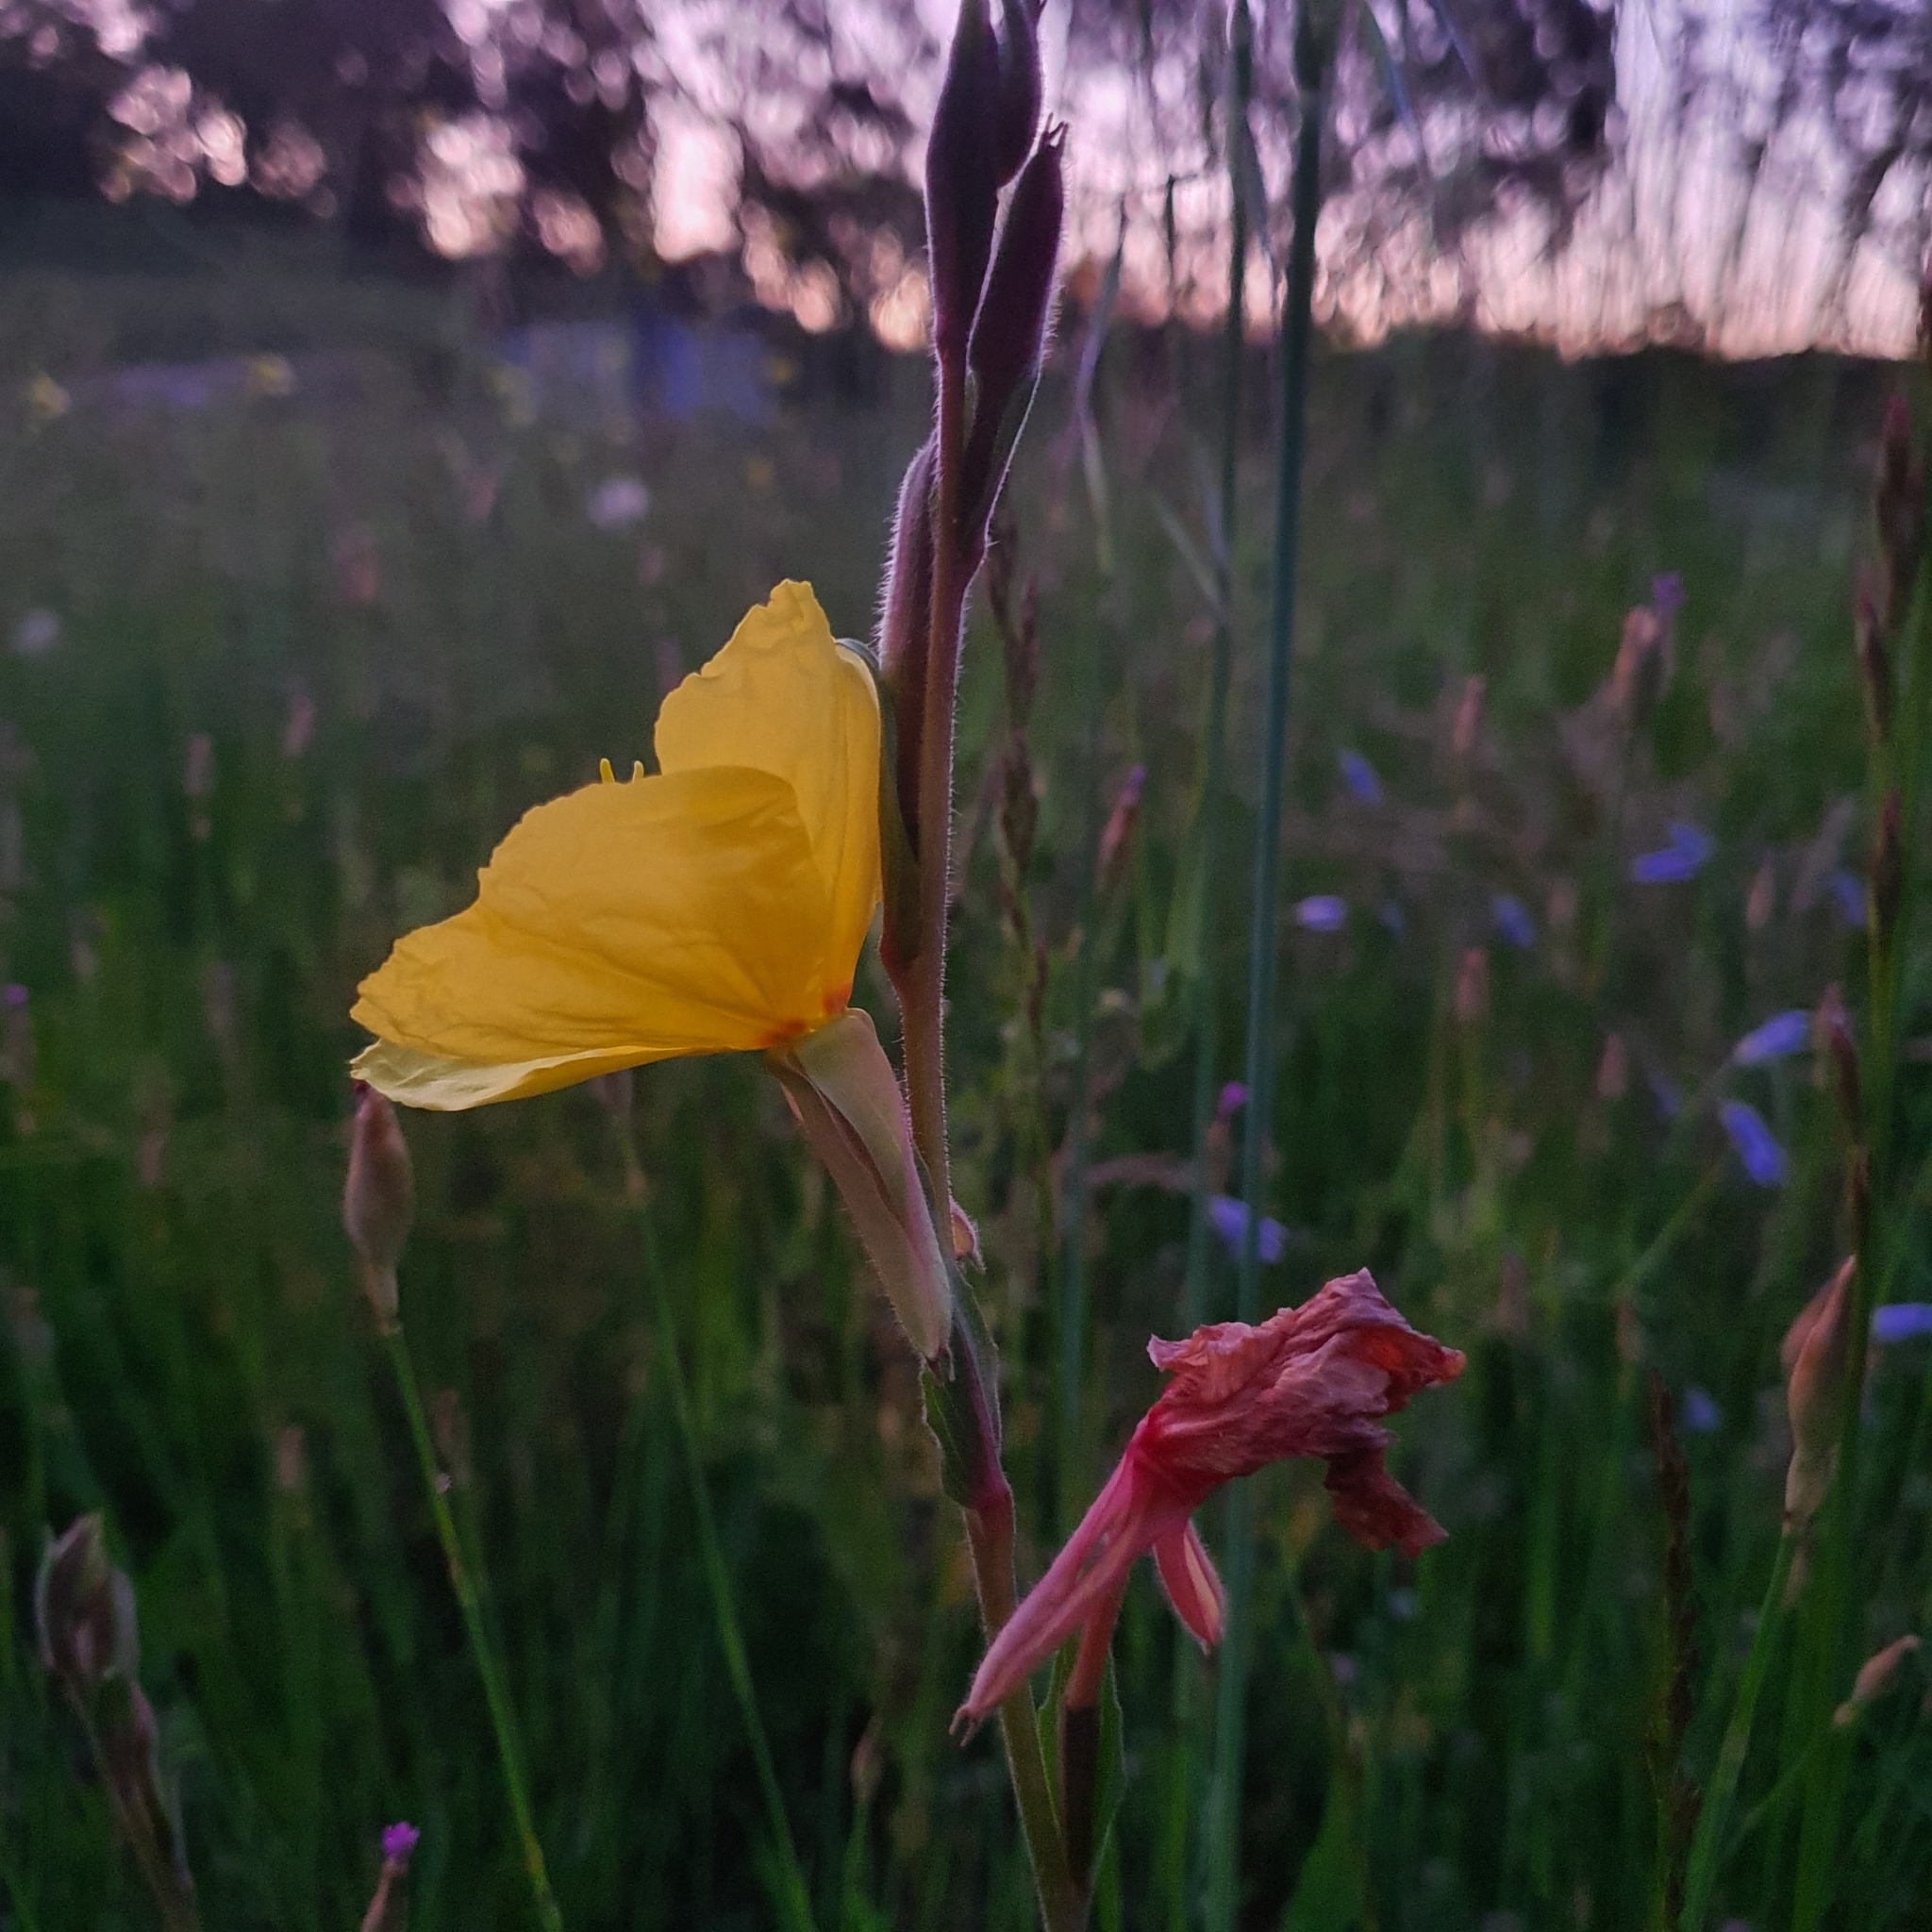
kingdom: Plantae
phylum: Tracheophyta
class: Magnoliopsida
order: Myrtales
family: Onagraceae
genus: Oenothera
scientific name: Oenothera stricta
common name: Fragrant evening-primrose
